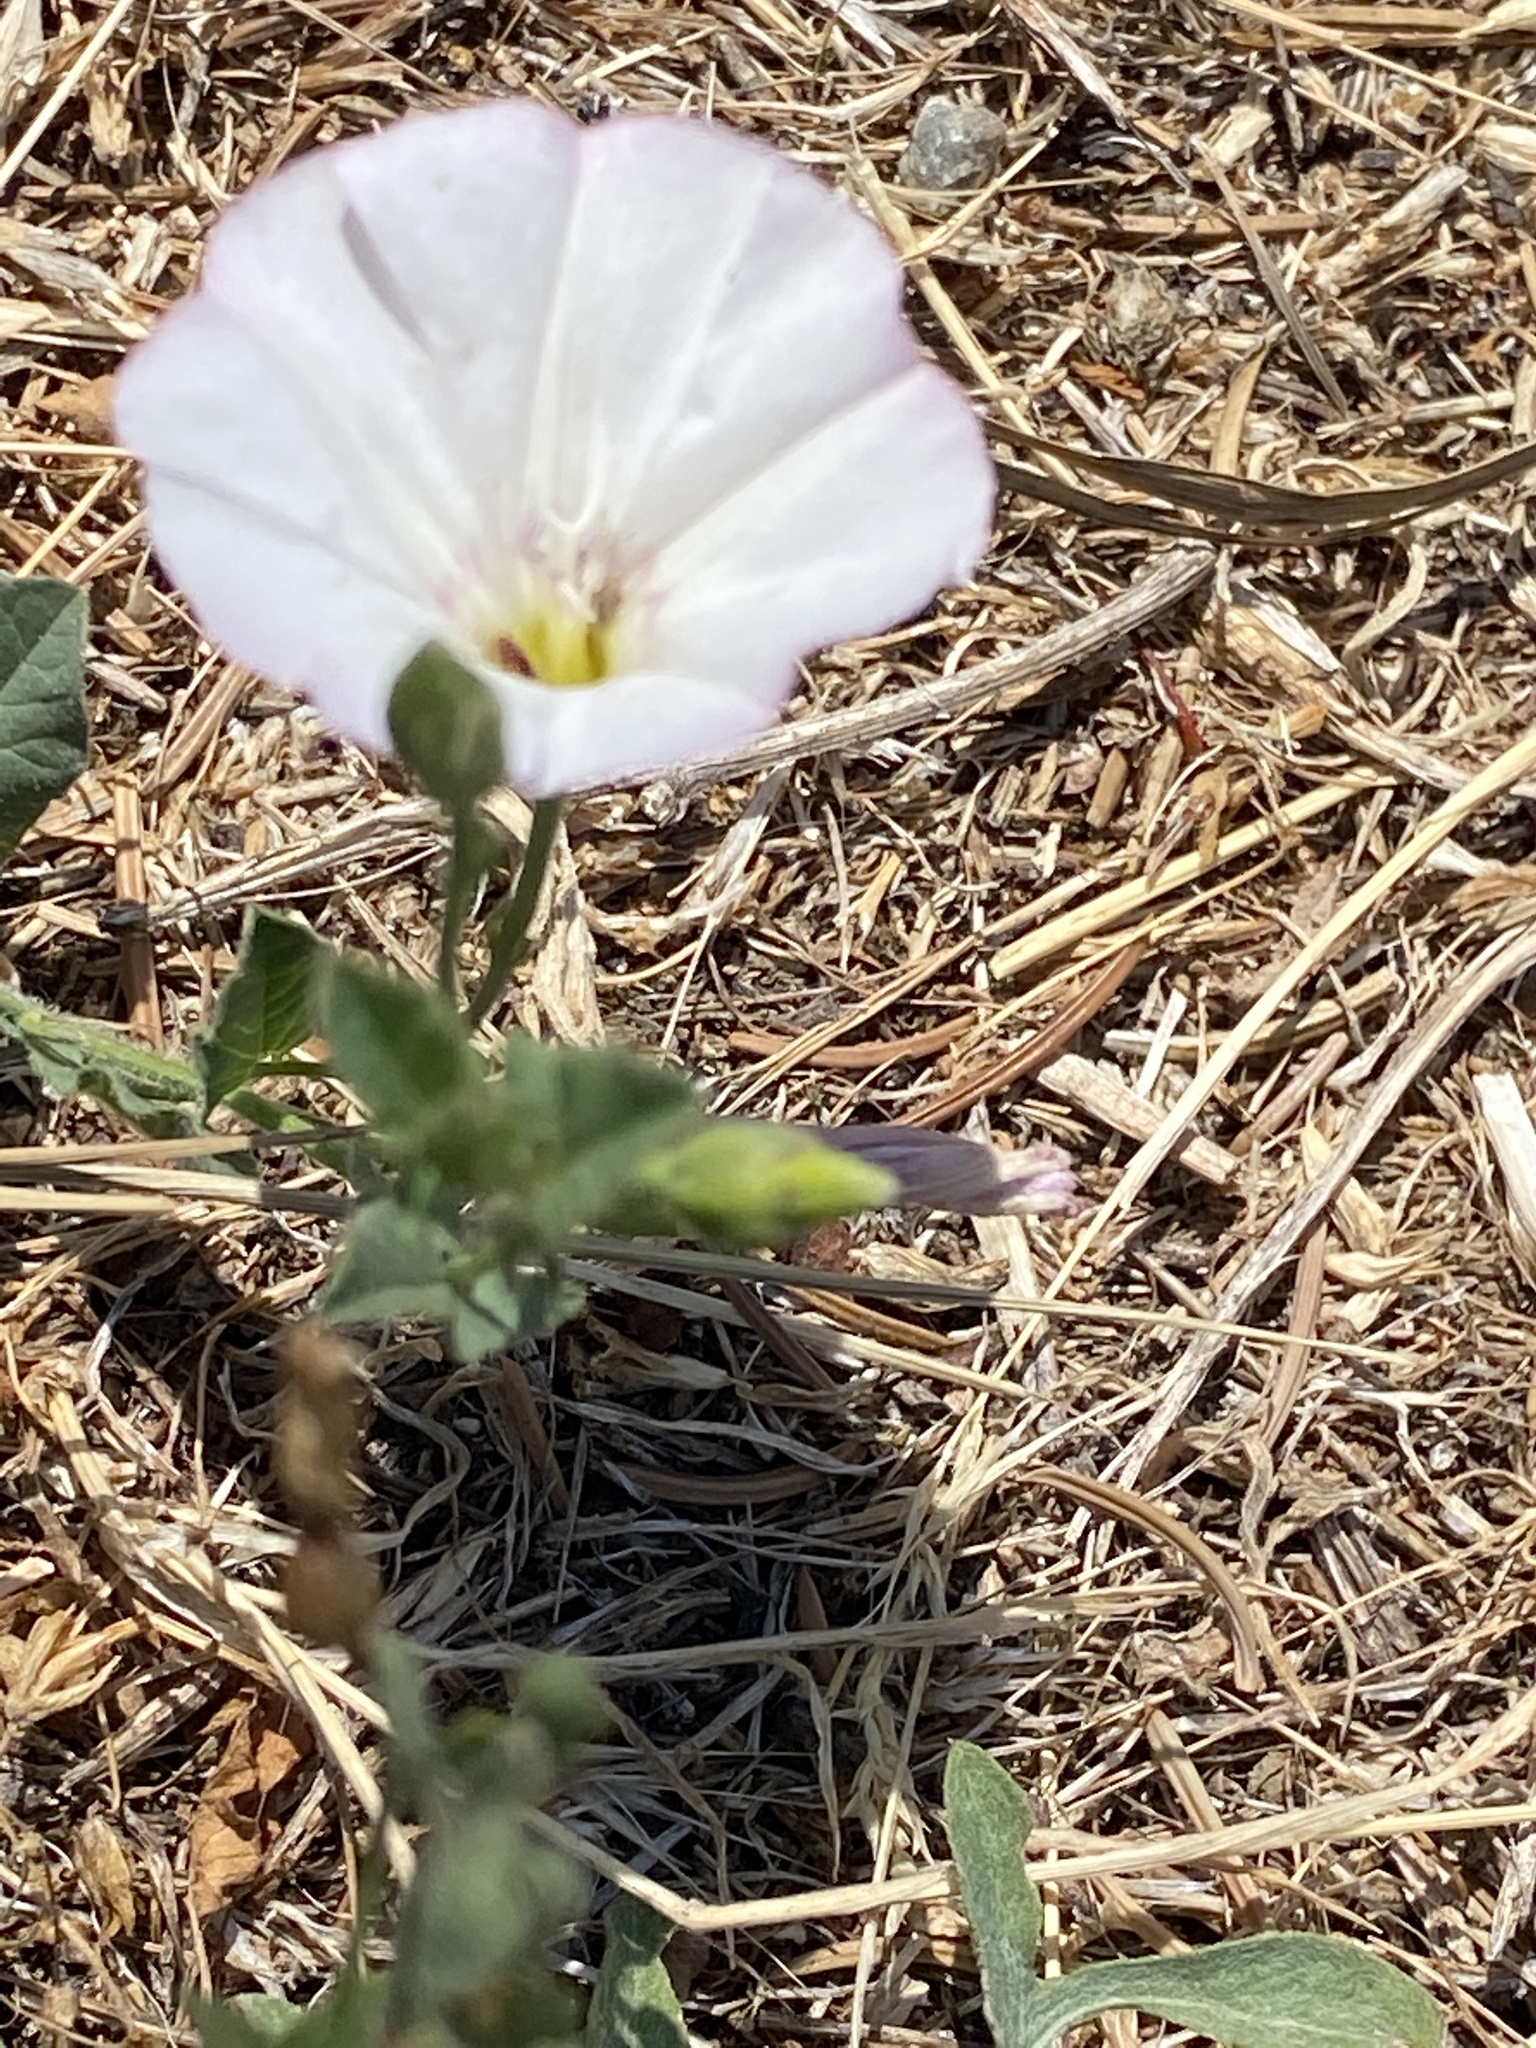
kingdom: Plantae
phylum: Tracheophyta
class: Magnoliopsida
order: Solanales
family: Convolvulaceae
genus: Convolvulus
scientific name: Convolvulus arvensis
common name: Field bindweed
